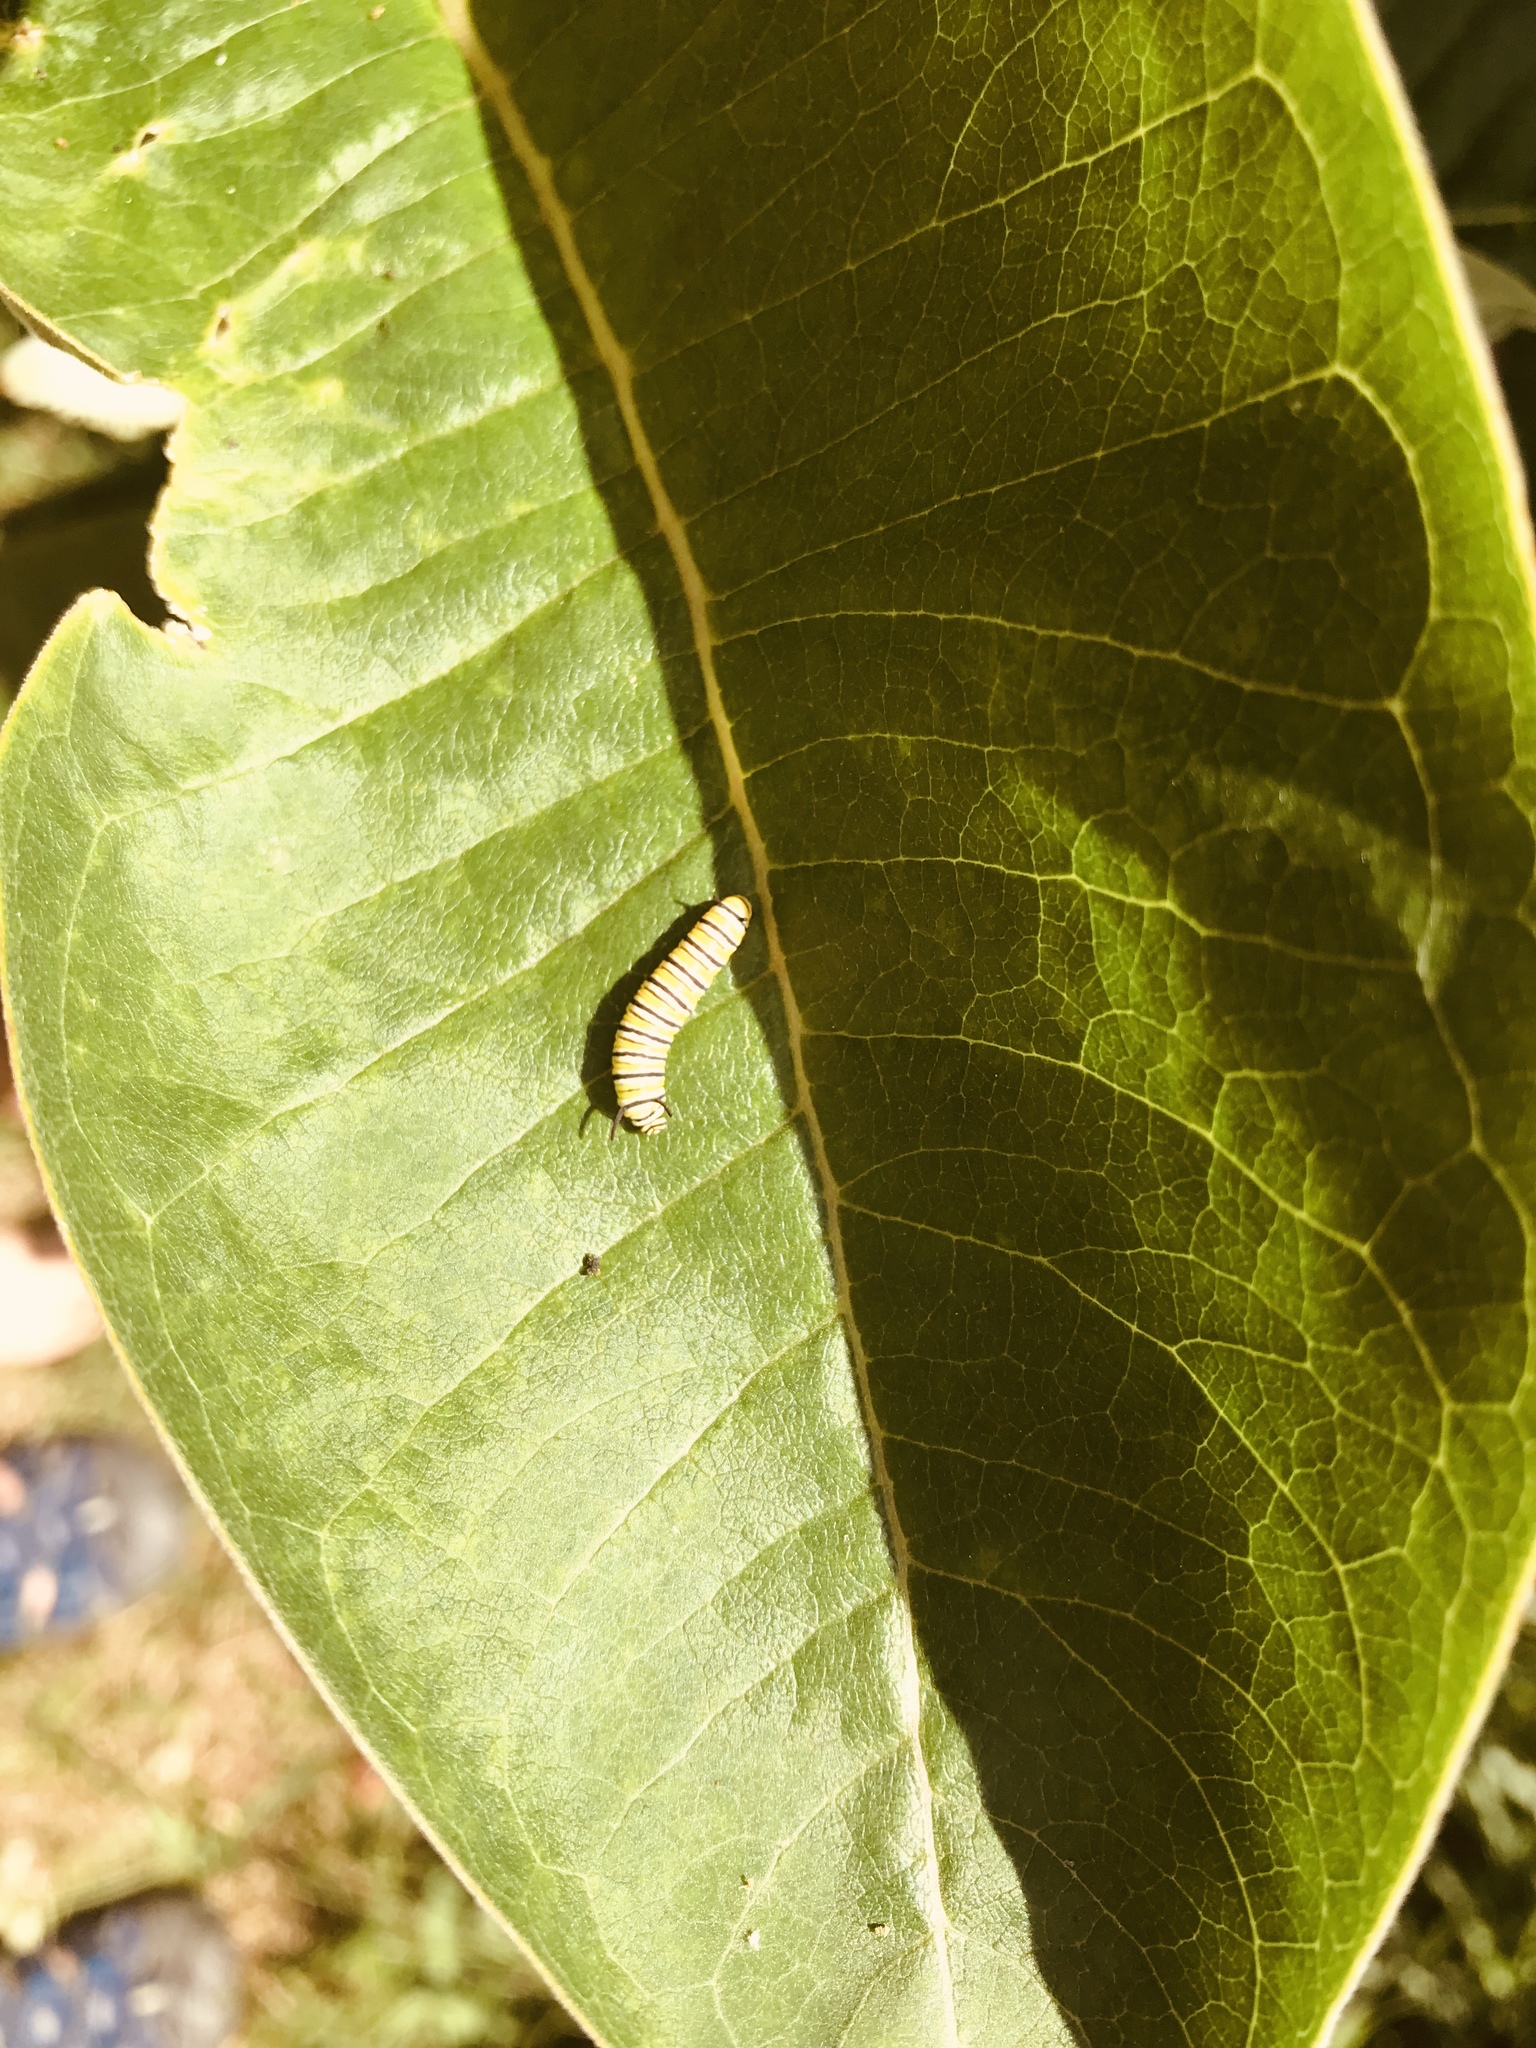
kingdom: Animalia
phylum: Arthropoda
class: Insecta
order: Lepidoptera
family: Nymphalidae
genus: Danaus
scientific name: Danaus plexippus
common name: Monarch
